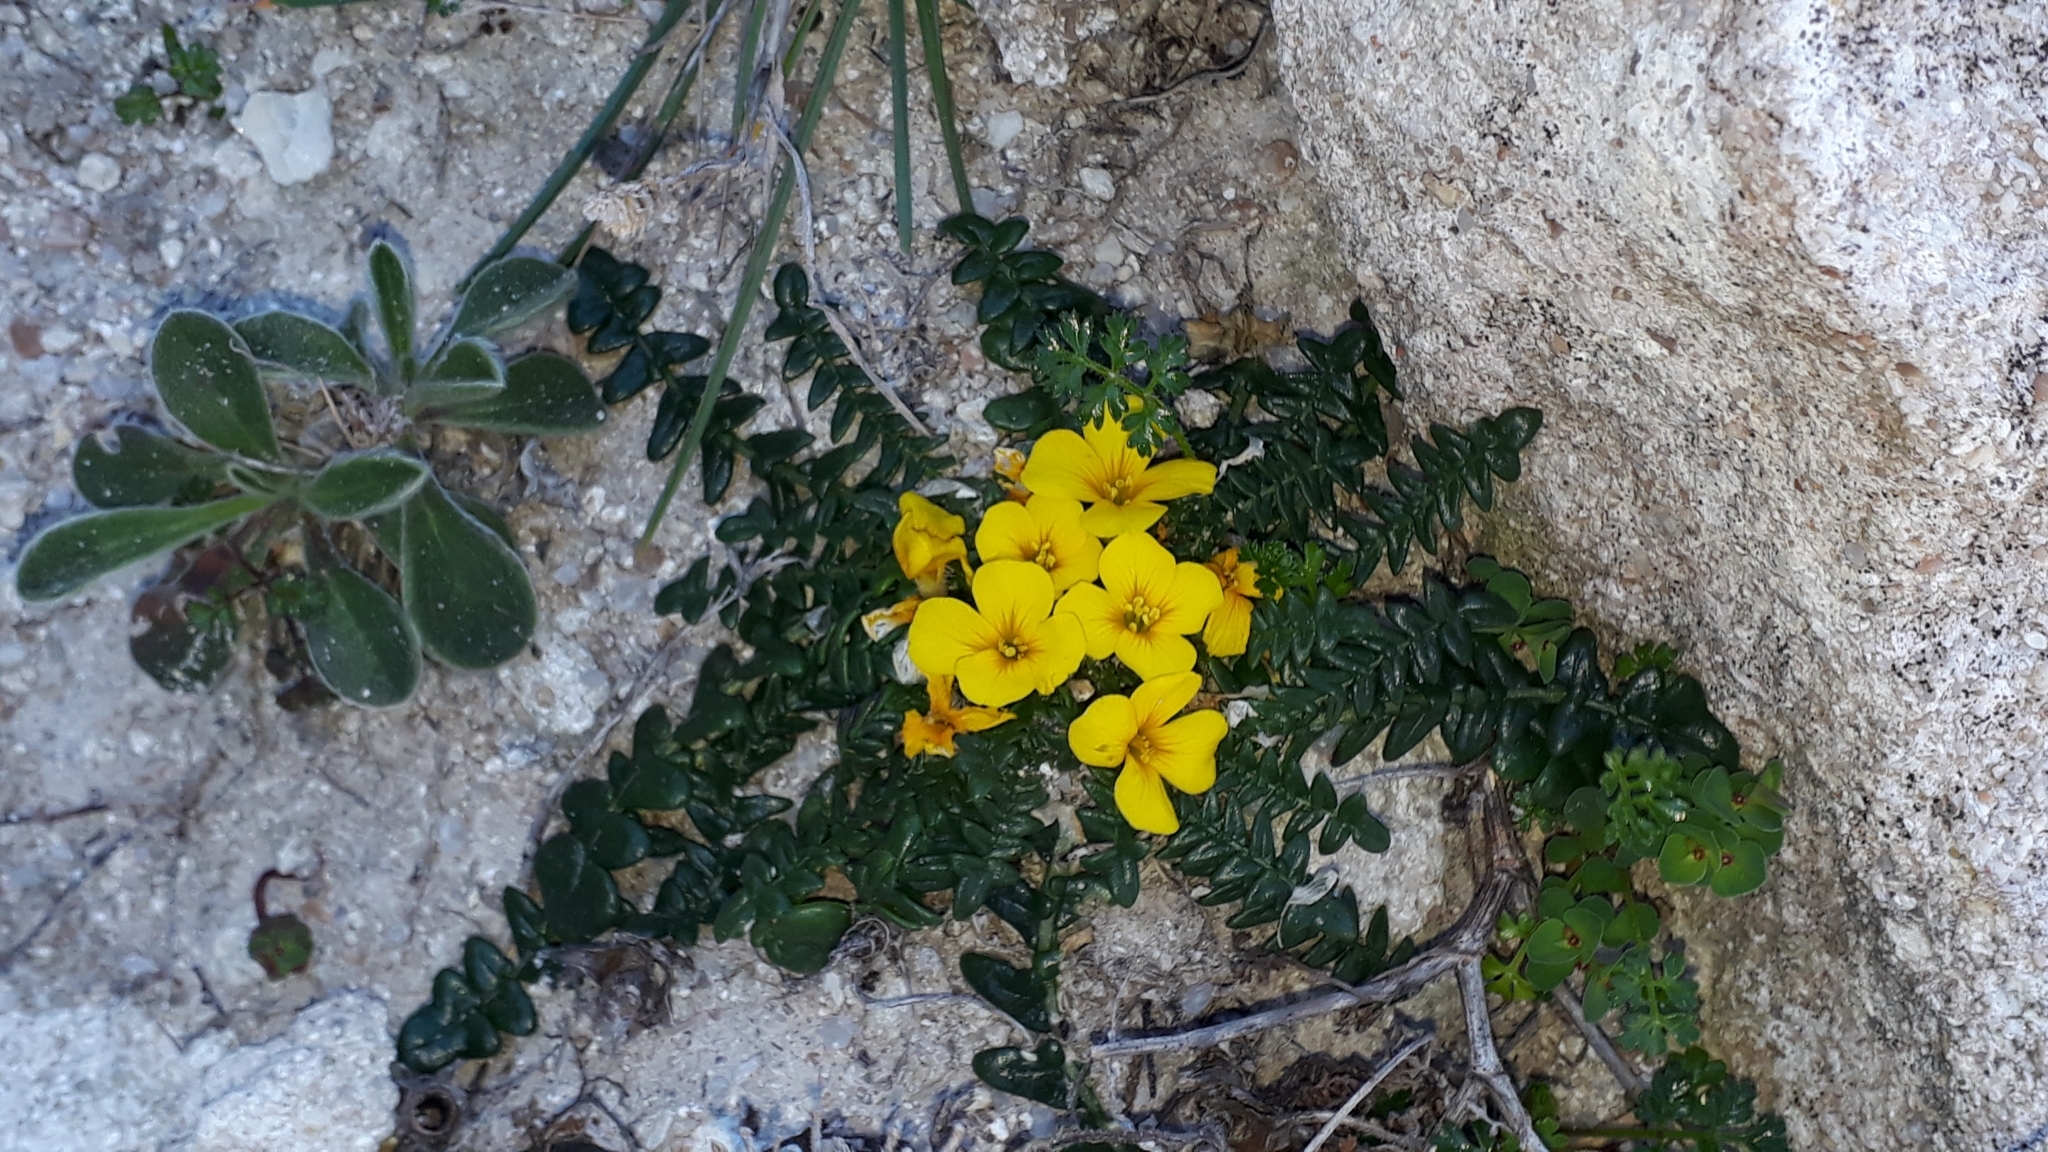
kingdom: Plantae
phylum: Tracheophyta
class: Magnoliopsida
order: Brassicales
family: Brassicaceae
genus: Morisia
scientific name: Morisia monanthos
